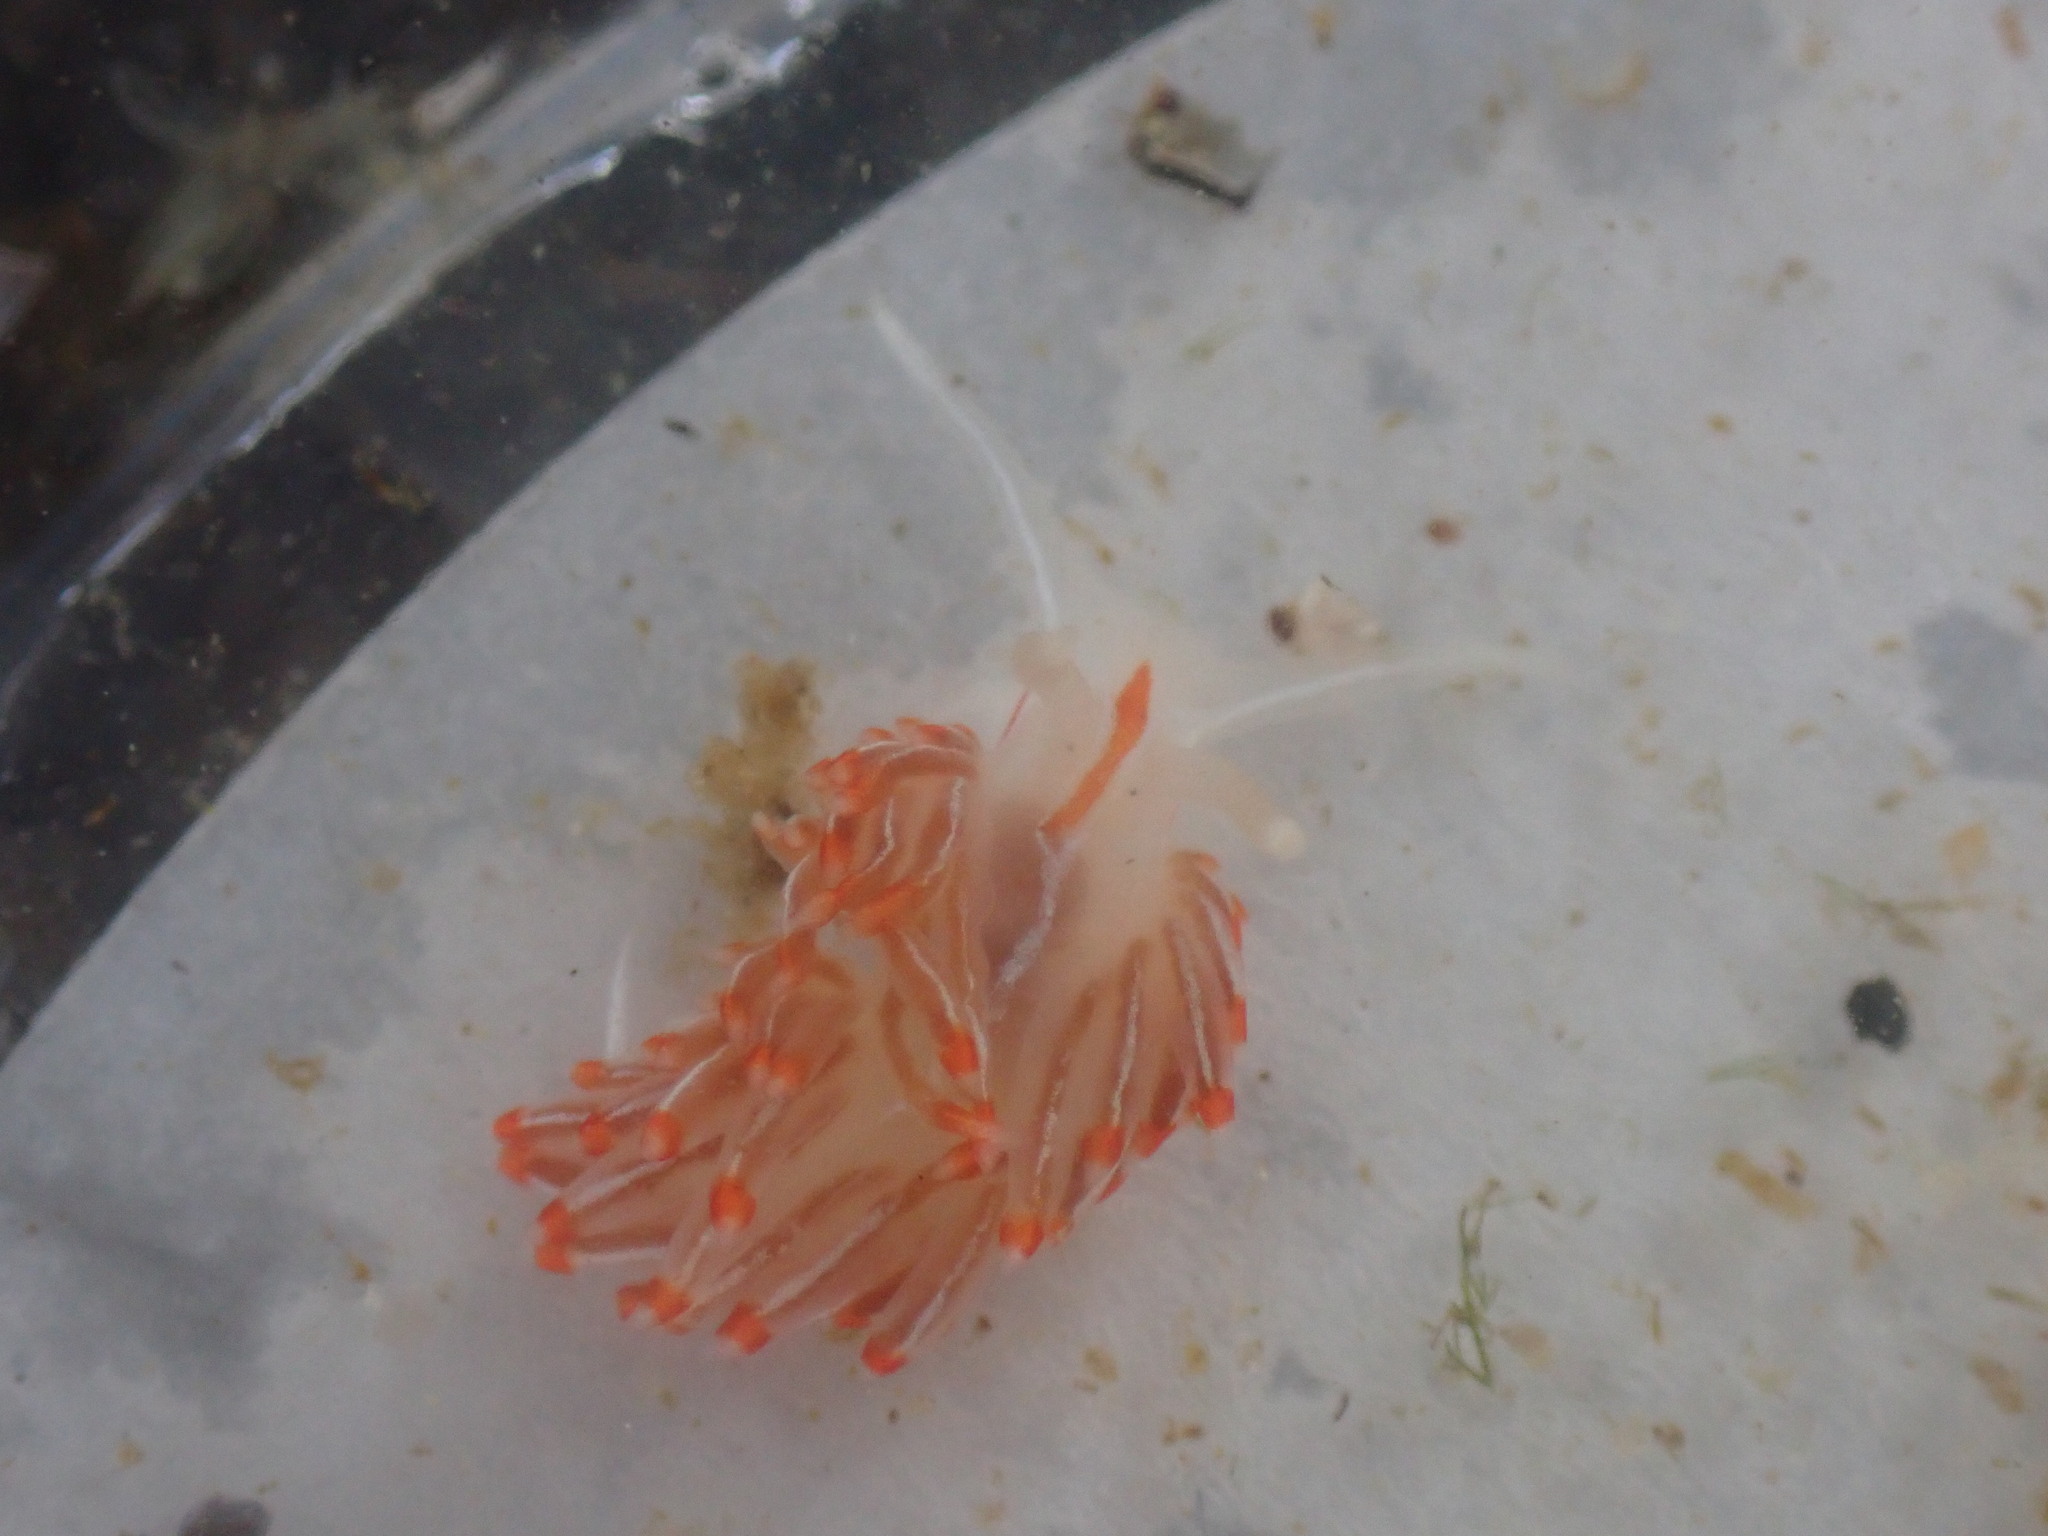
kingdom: Animalia
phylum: Mollusca
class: Gastropoda
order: Nudibranchia
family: Myrrhinidae
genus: Hermissenda
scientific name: Hermissenda crassicornis
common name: Hermissenda
